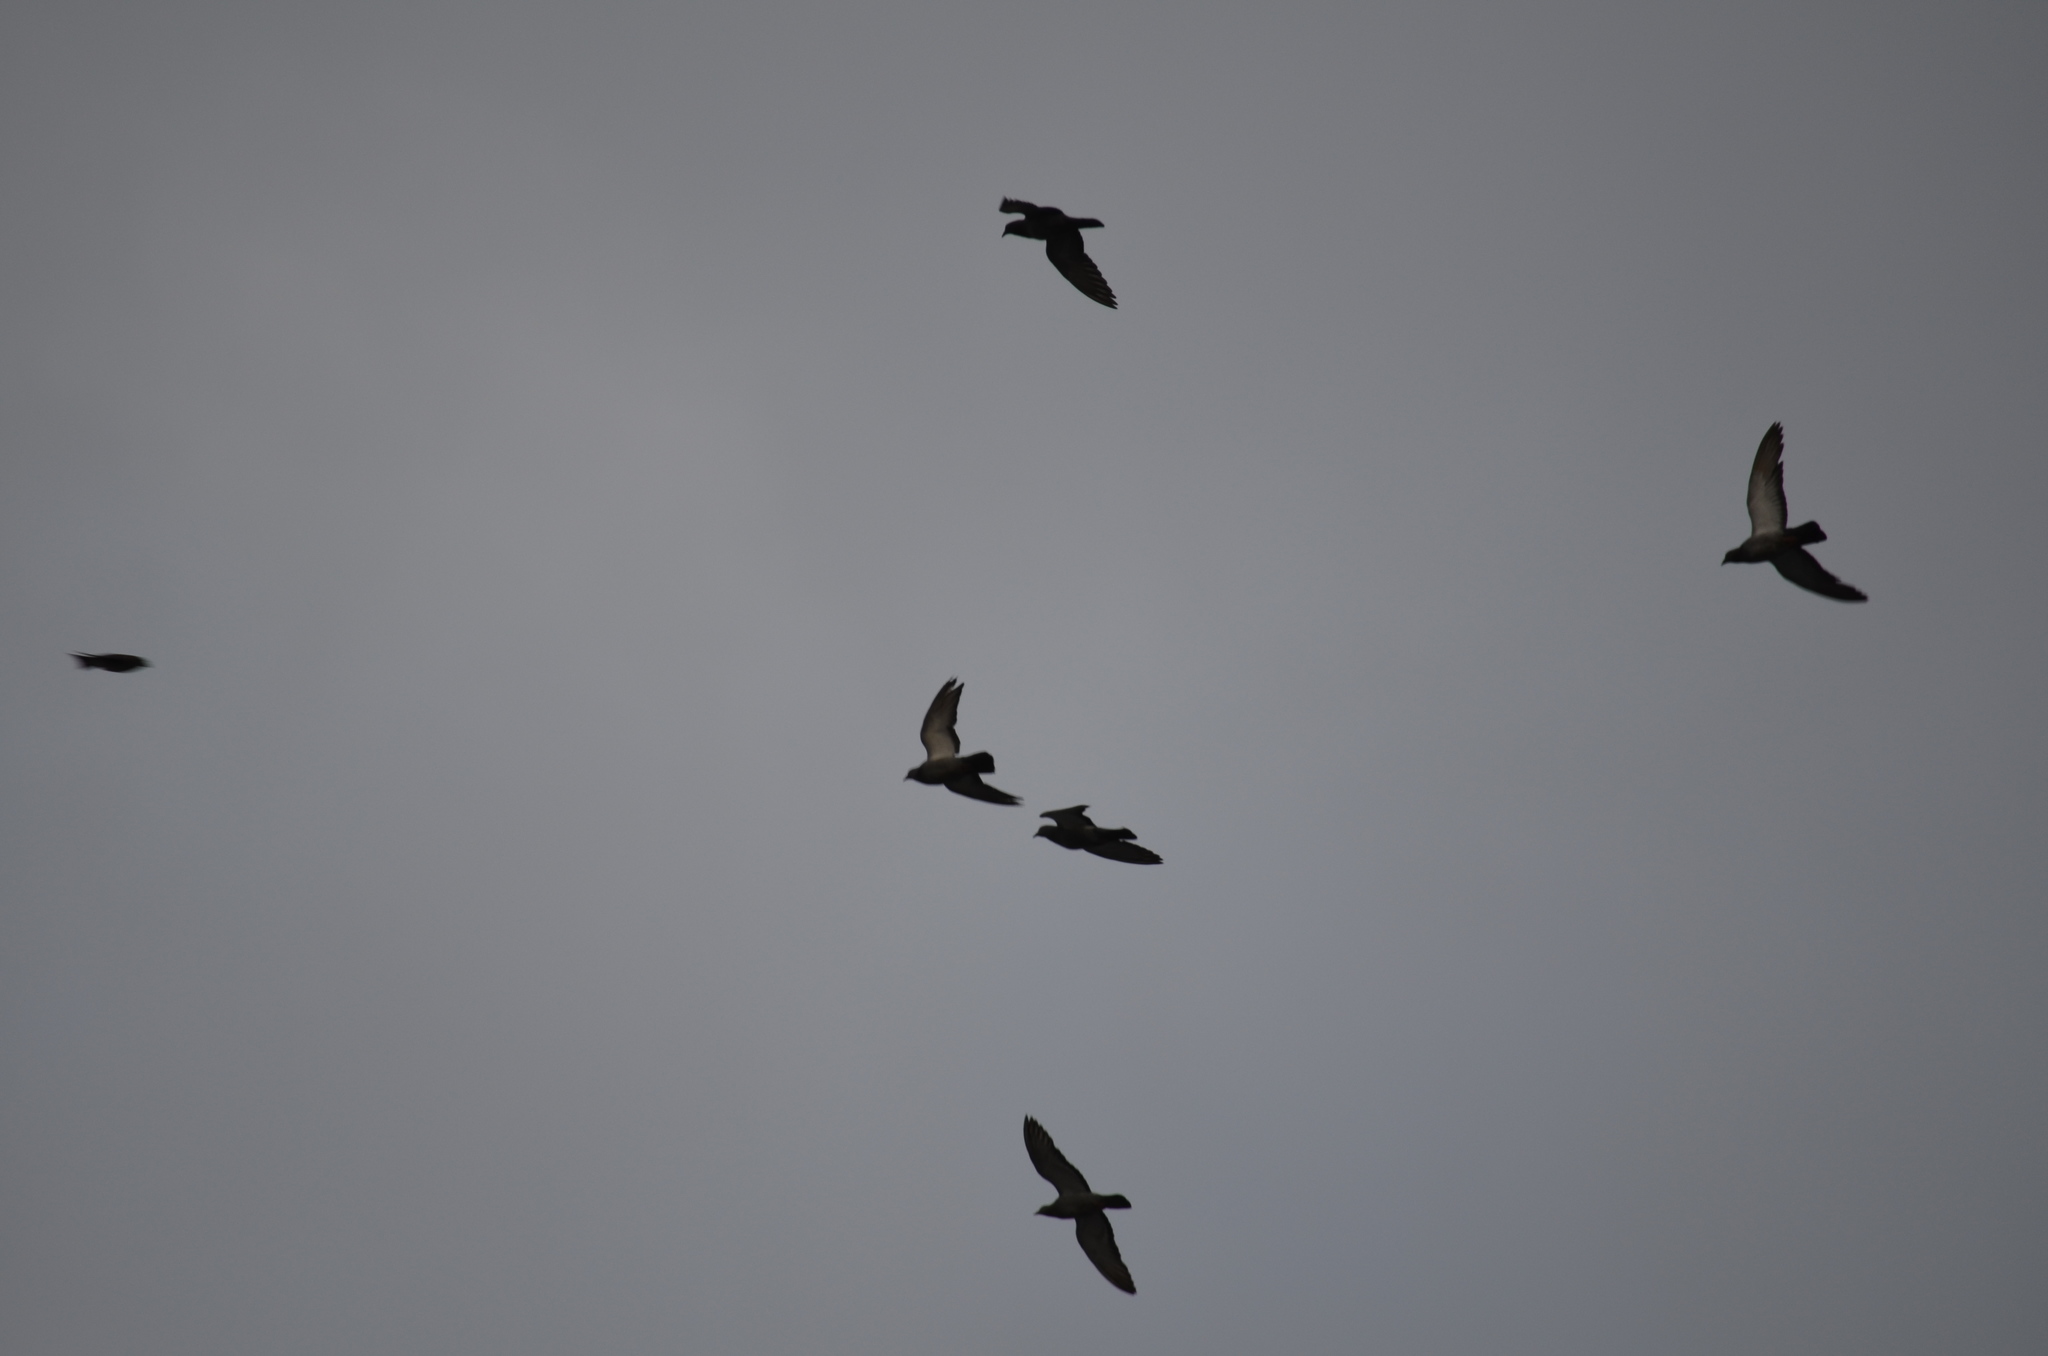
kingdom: Animalia
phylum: Chordata
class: Aves
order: Columbiformes
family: Columbidae
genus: Columba
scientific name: Columba livia
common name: Rock pigeon
